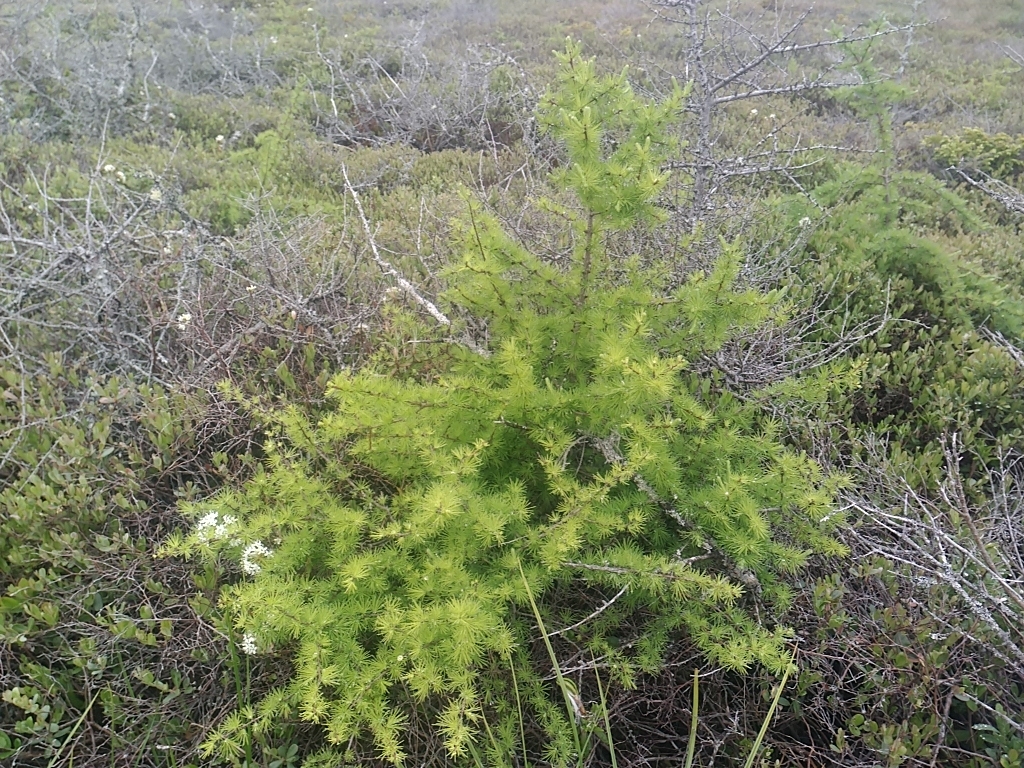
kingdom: Plantae
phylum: Tracheophyta
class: Pinopsida
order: Pinales
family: Pinaceae
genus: Larix
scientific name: Larix laricina
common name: American larch
